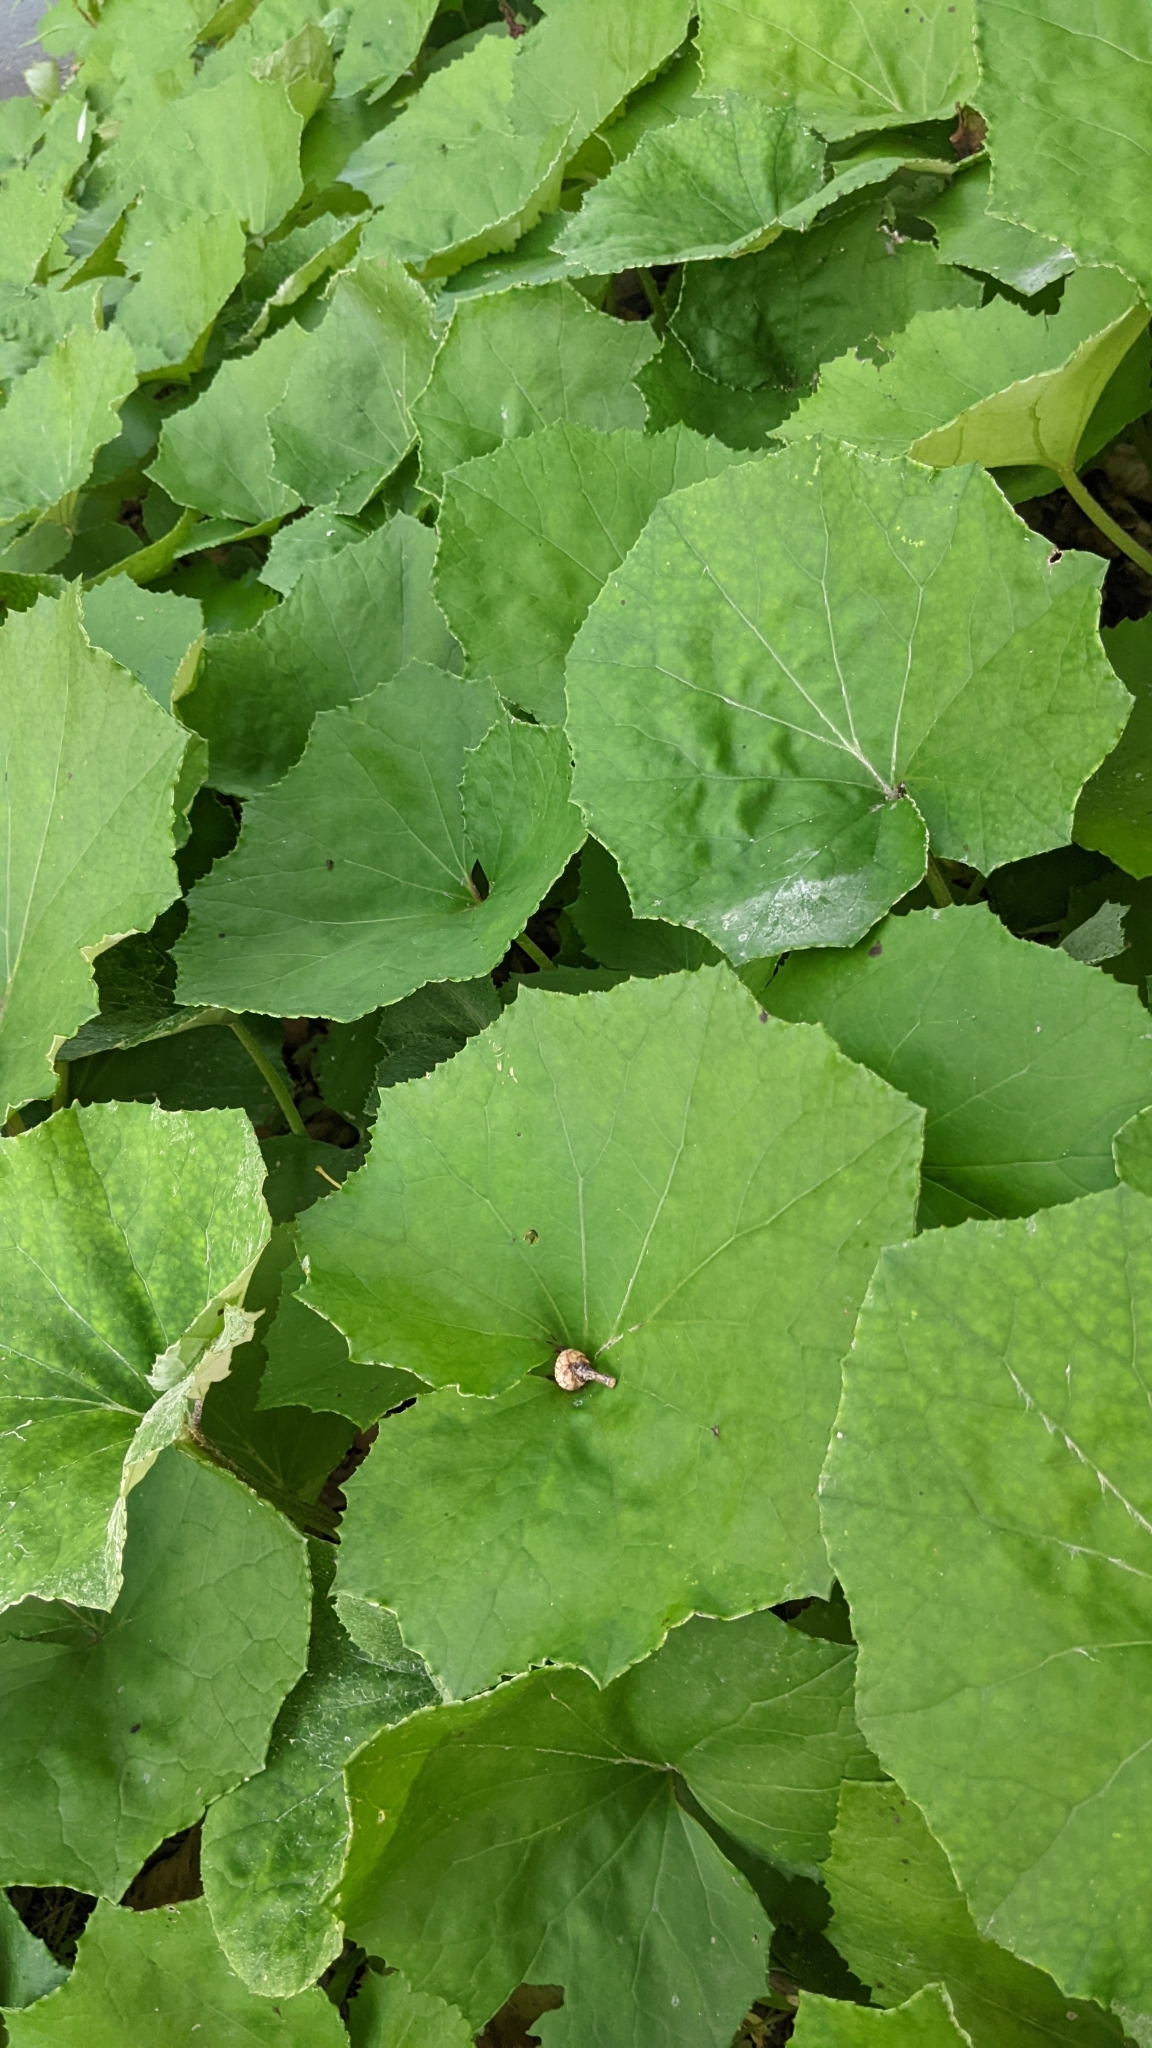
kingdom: Plantae
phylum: Tracheophyta
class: Magnoliopsida
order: Asterales
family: Asteraceae
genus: Tussilago
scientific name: Tussilago farfara
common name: Coltsfoot
